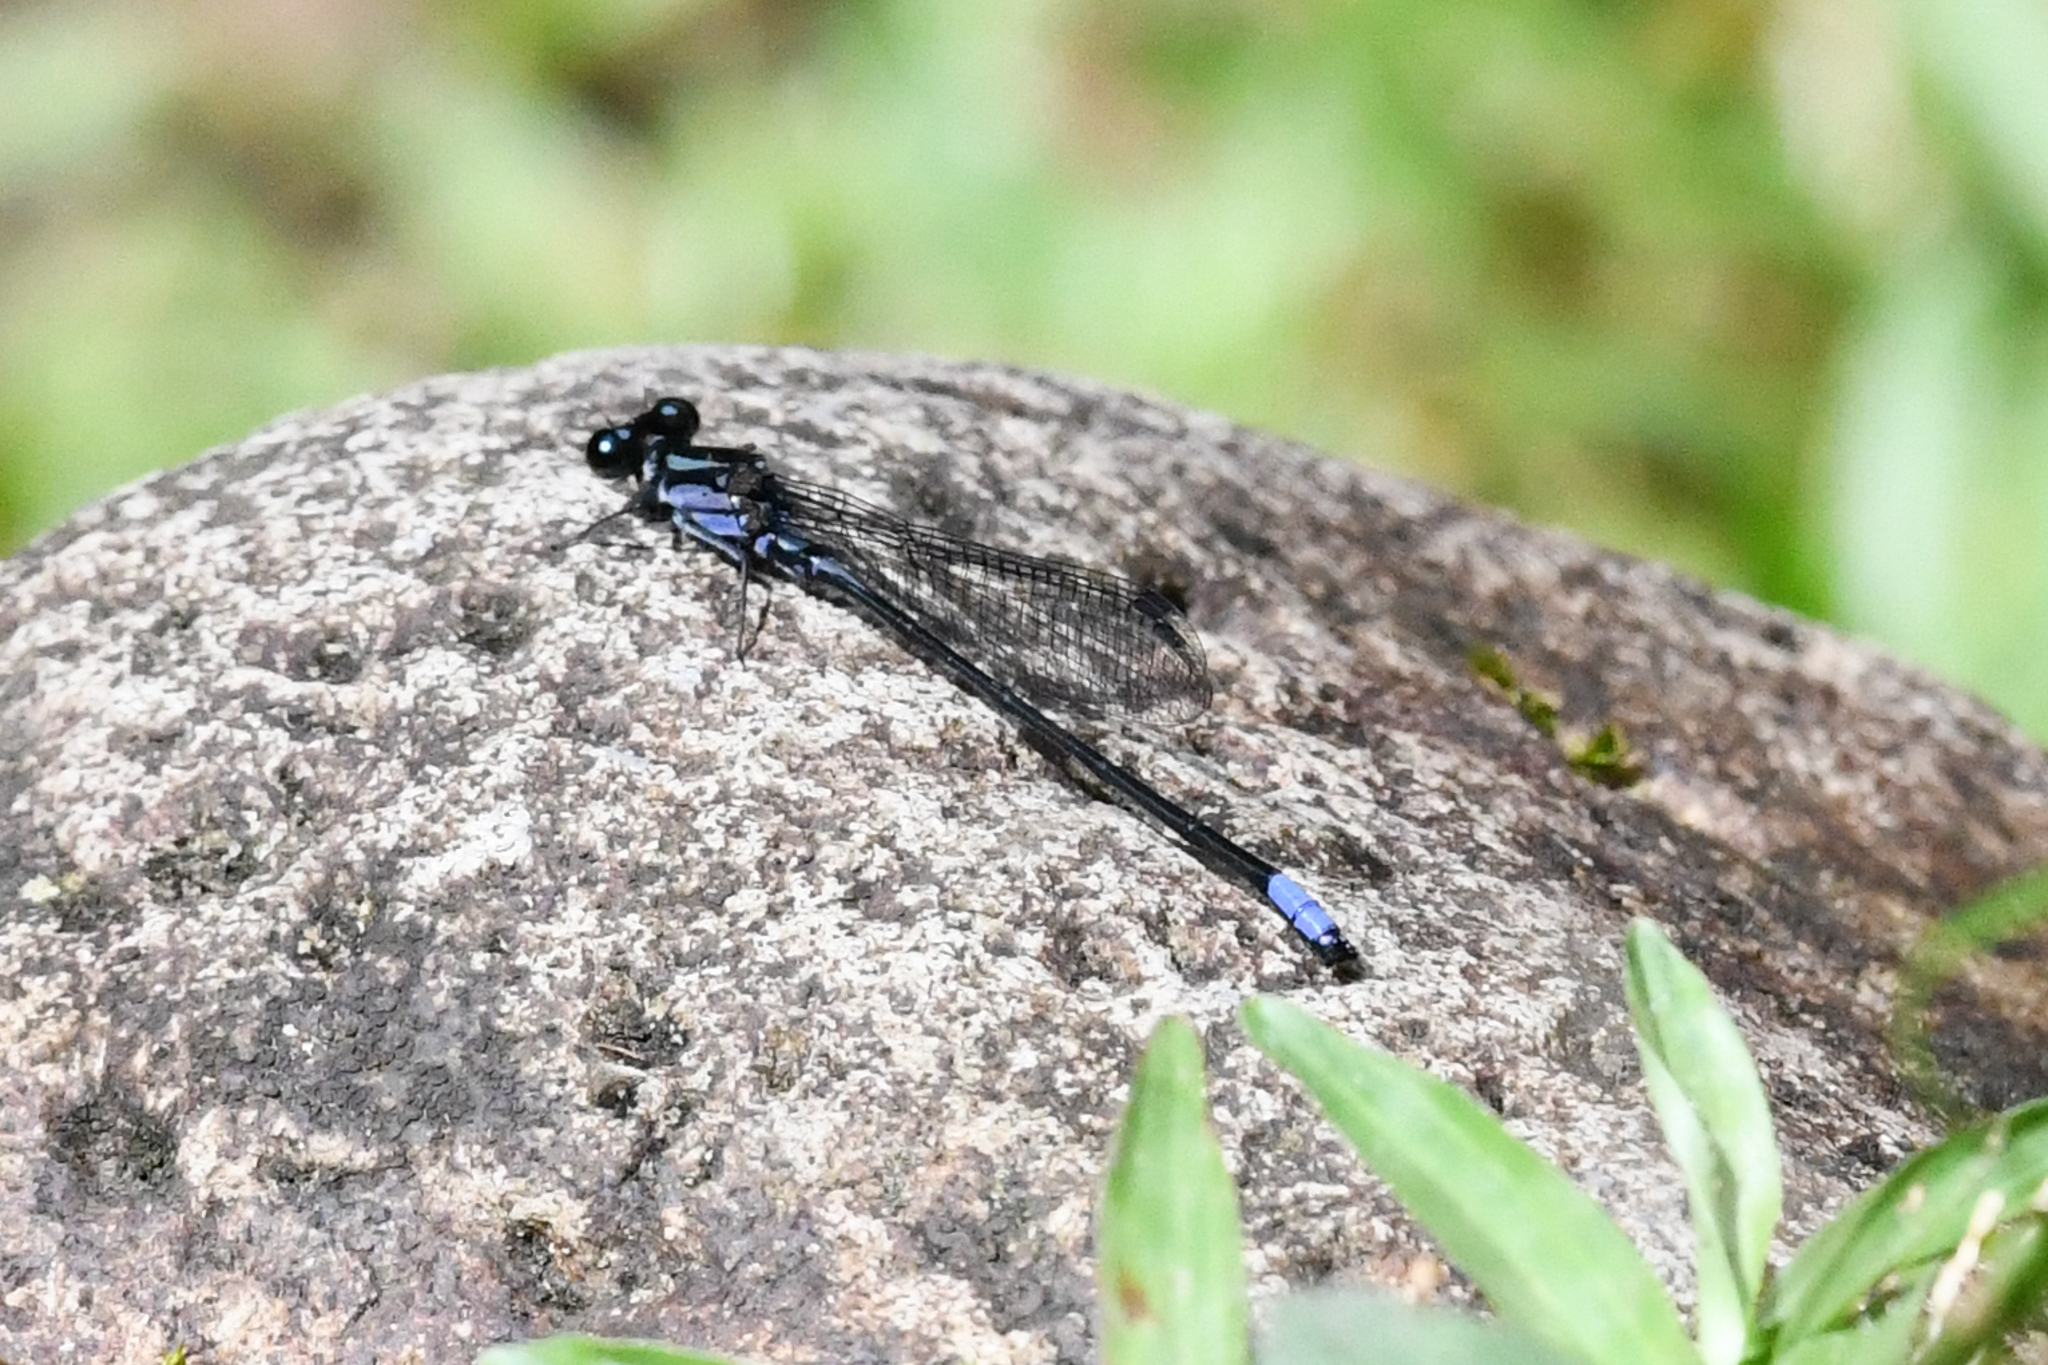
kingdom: Animalia
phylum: Arthropoda
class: Insecta
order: Odonata
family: Coenagrionidae
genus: Argia
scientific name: Argia ulmeca
